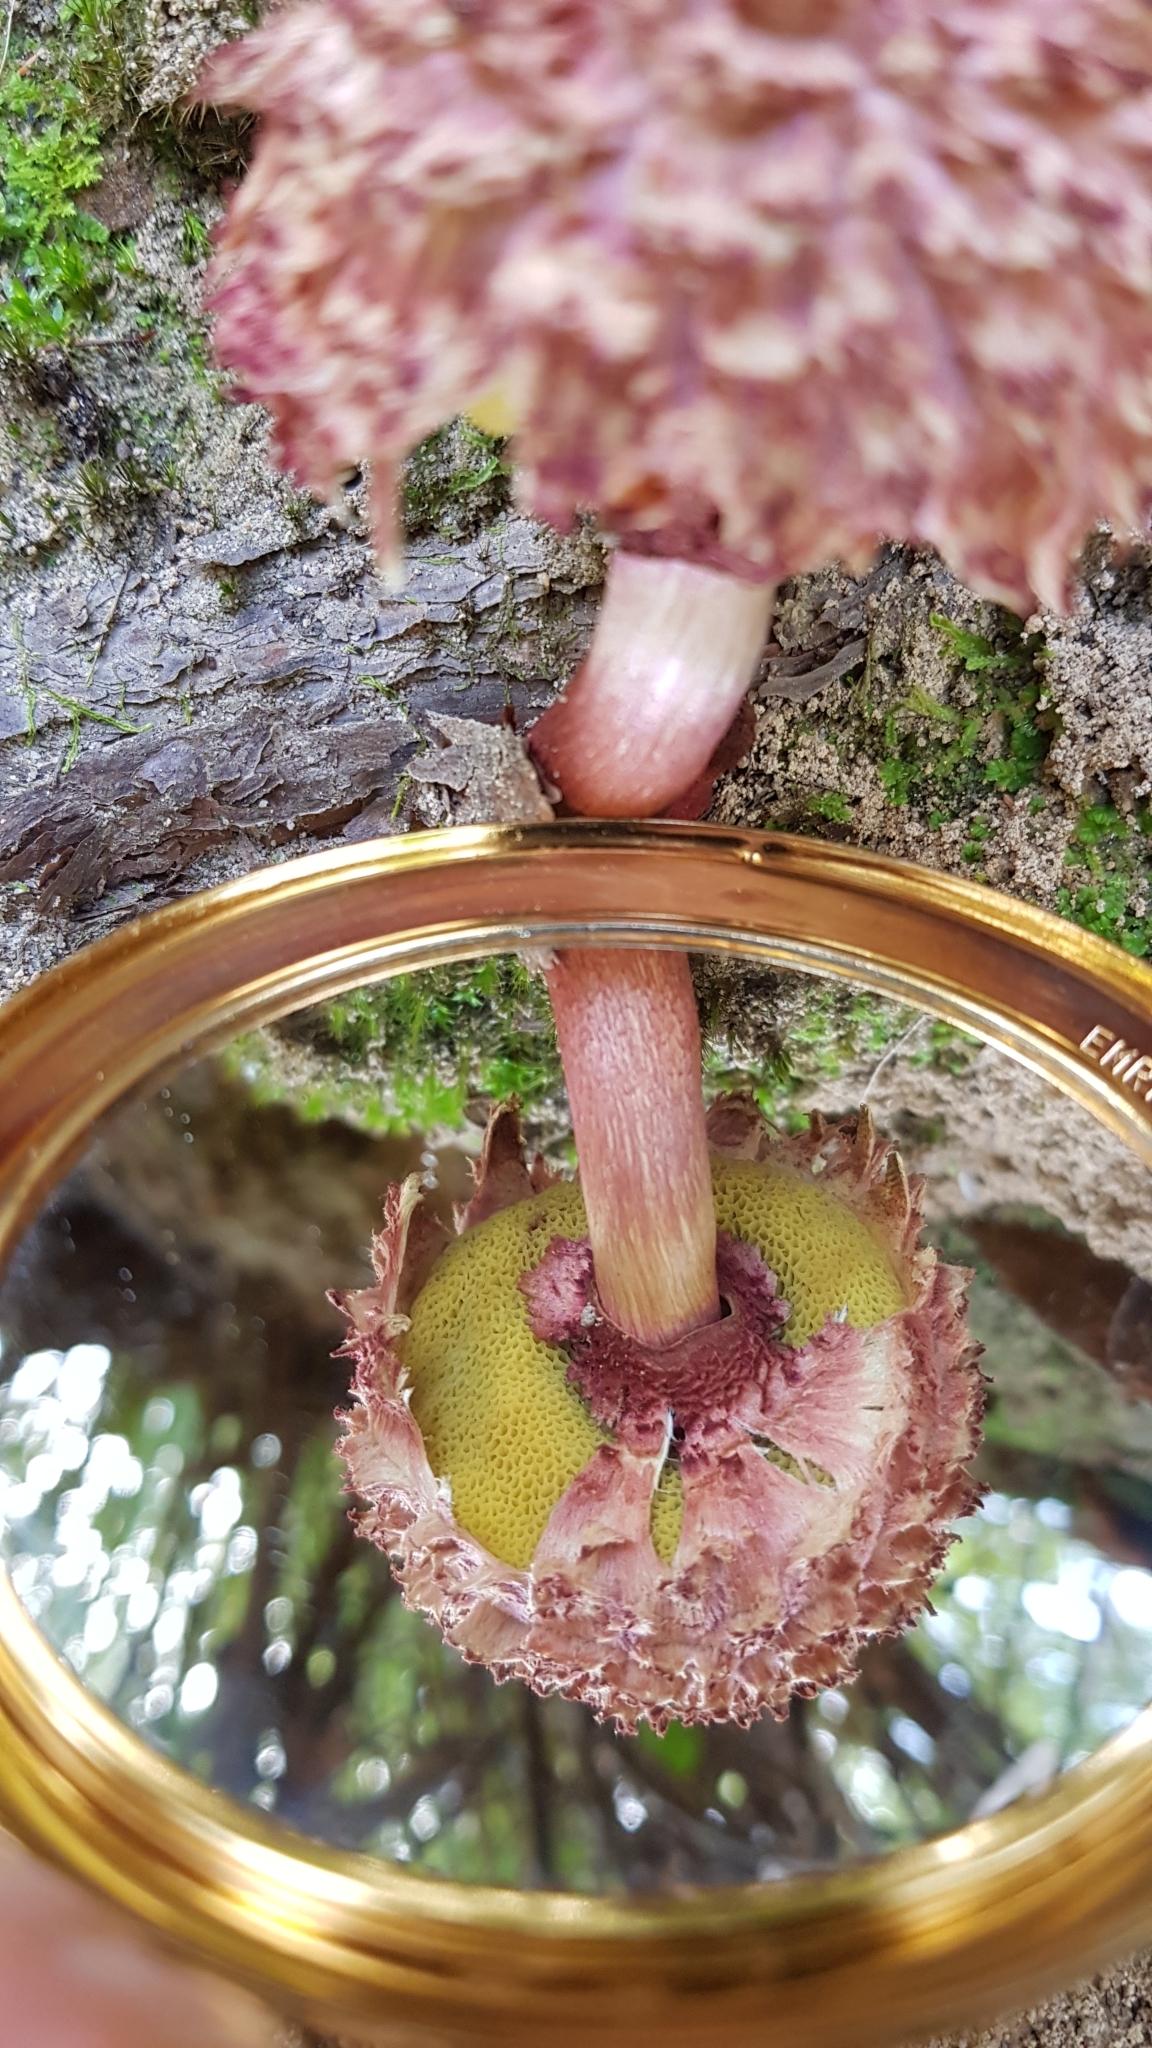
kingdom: Fungi
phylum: Basidiomycota
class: Agaricomycetes
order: Boletales
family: Boletaceae
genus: Boletellus
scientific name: Boletellus emodensis
